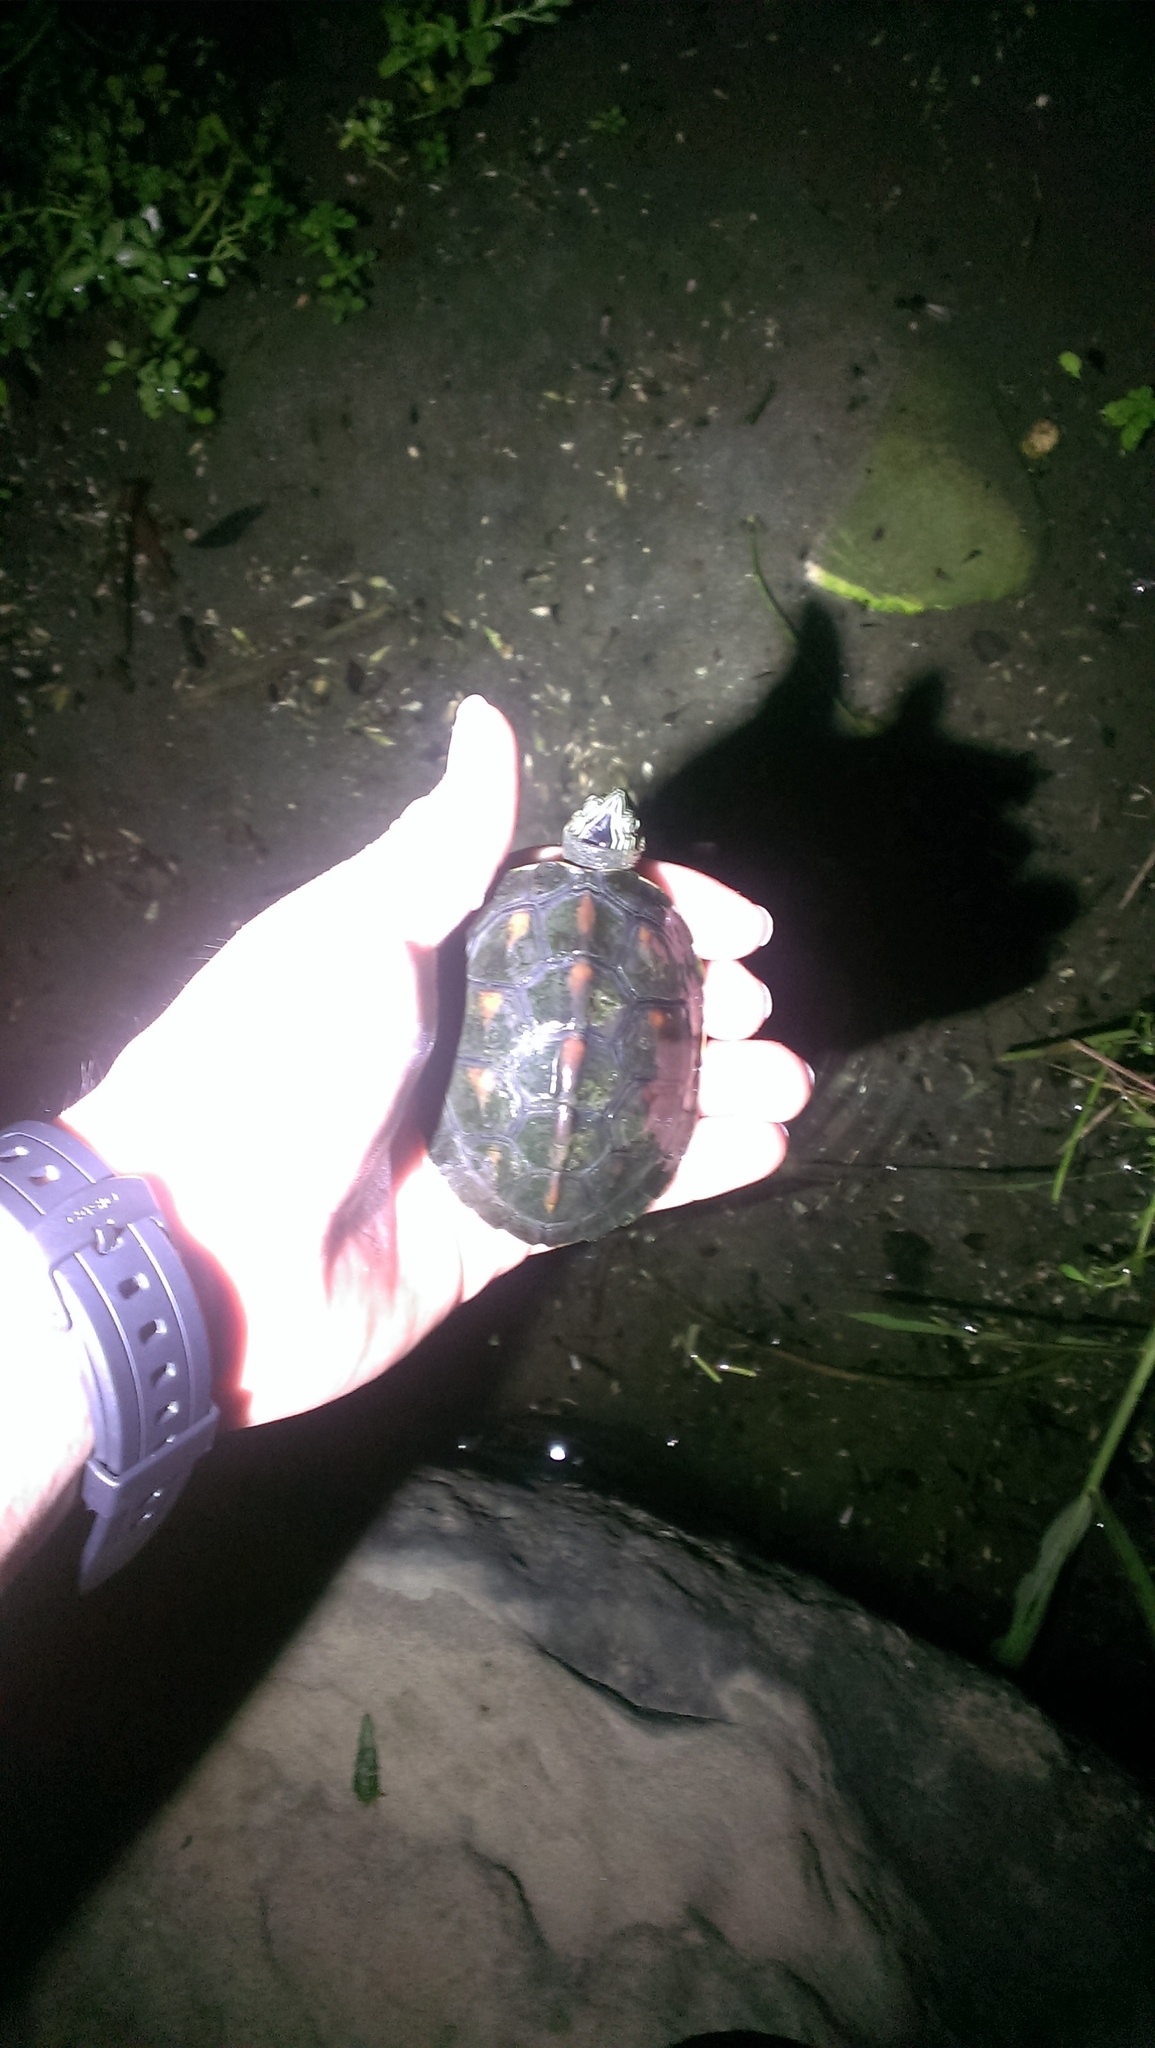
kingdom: Animalia
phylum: Chordata
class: Testudines
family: Geoemydidae
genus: Mauremys
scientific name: Mauremys sinensis
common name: Chinese stripe-necked turtle
